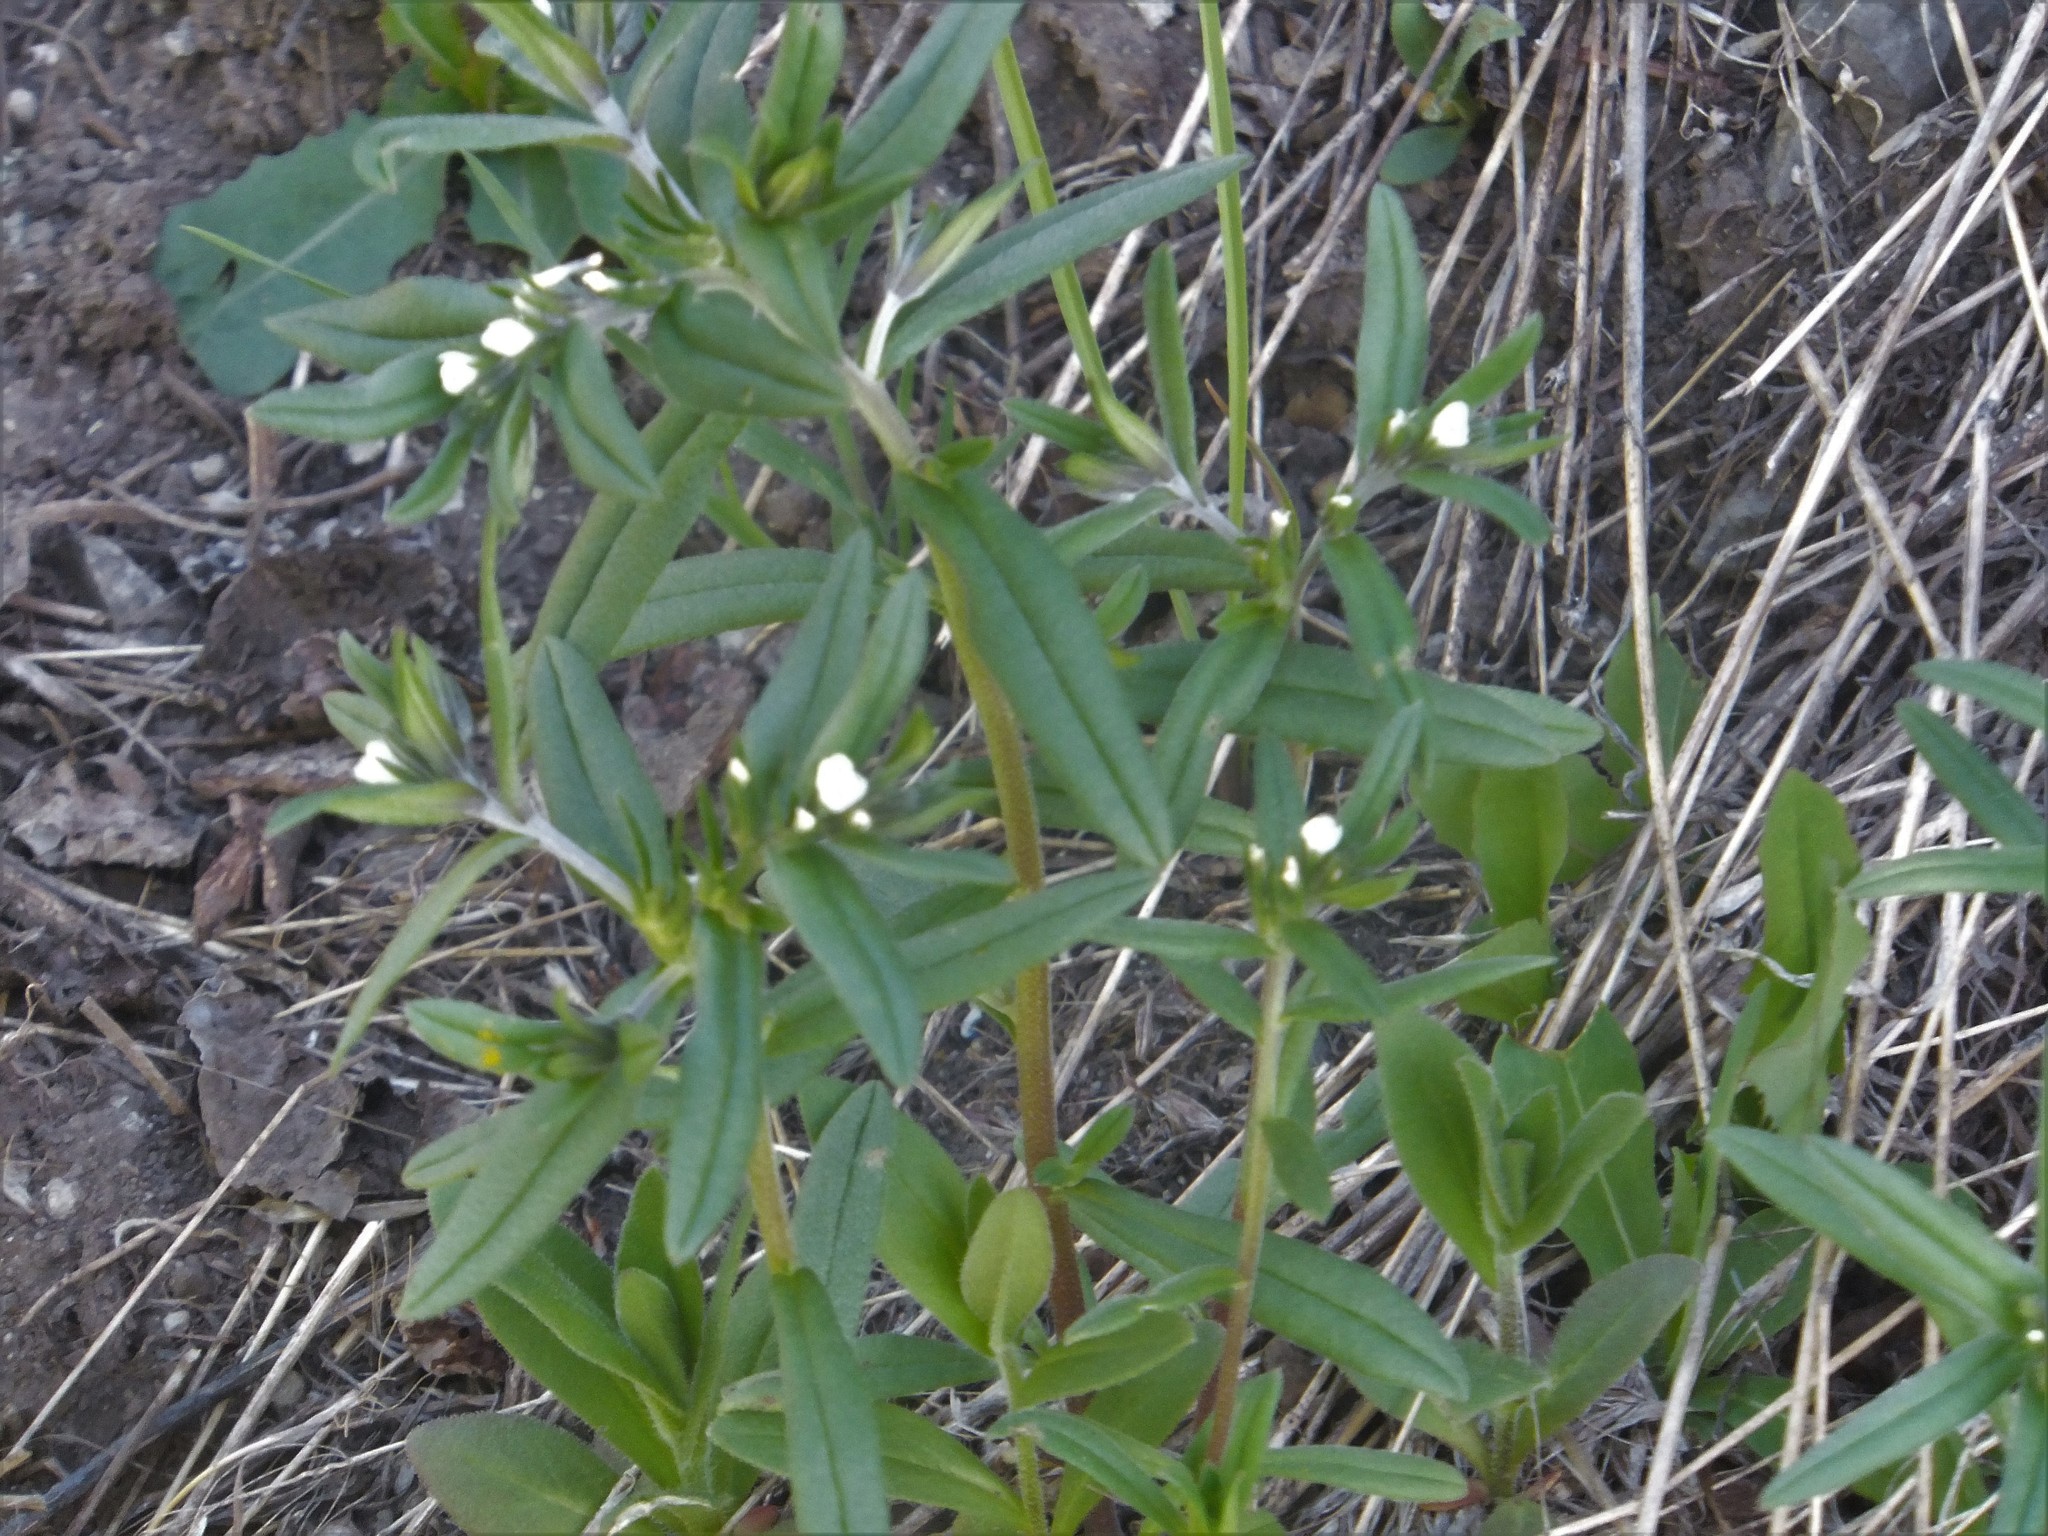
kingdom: Plantae
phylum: Tracheophyta
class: Magnoliopsida
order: Boraginales
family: Boraginaceae
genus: Buglossoides
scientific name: Buglossoides arvensis
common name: Corn gromwell
